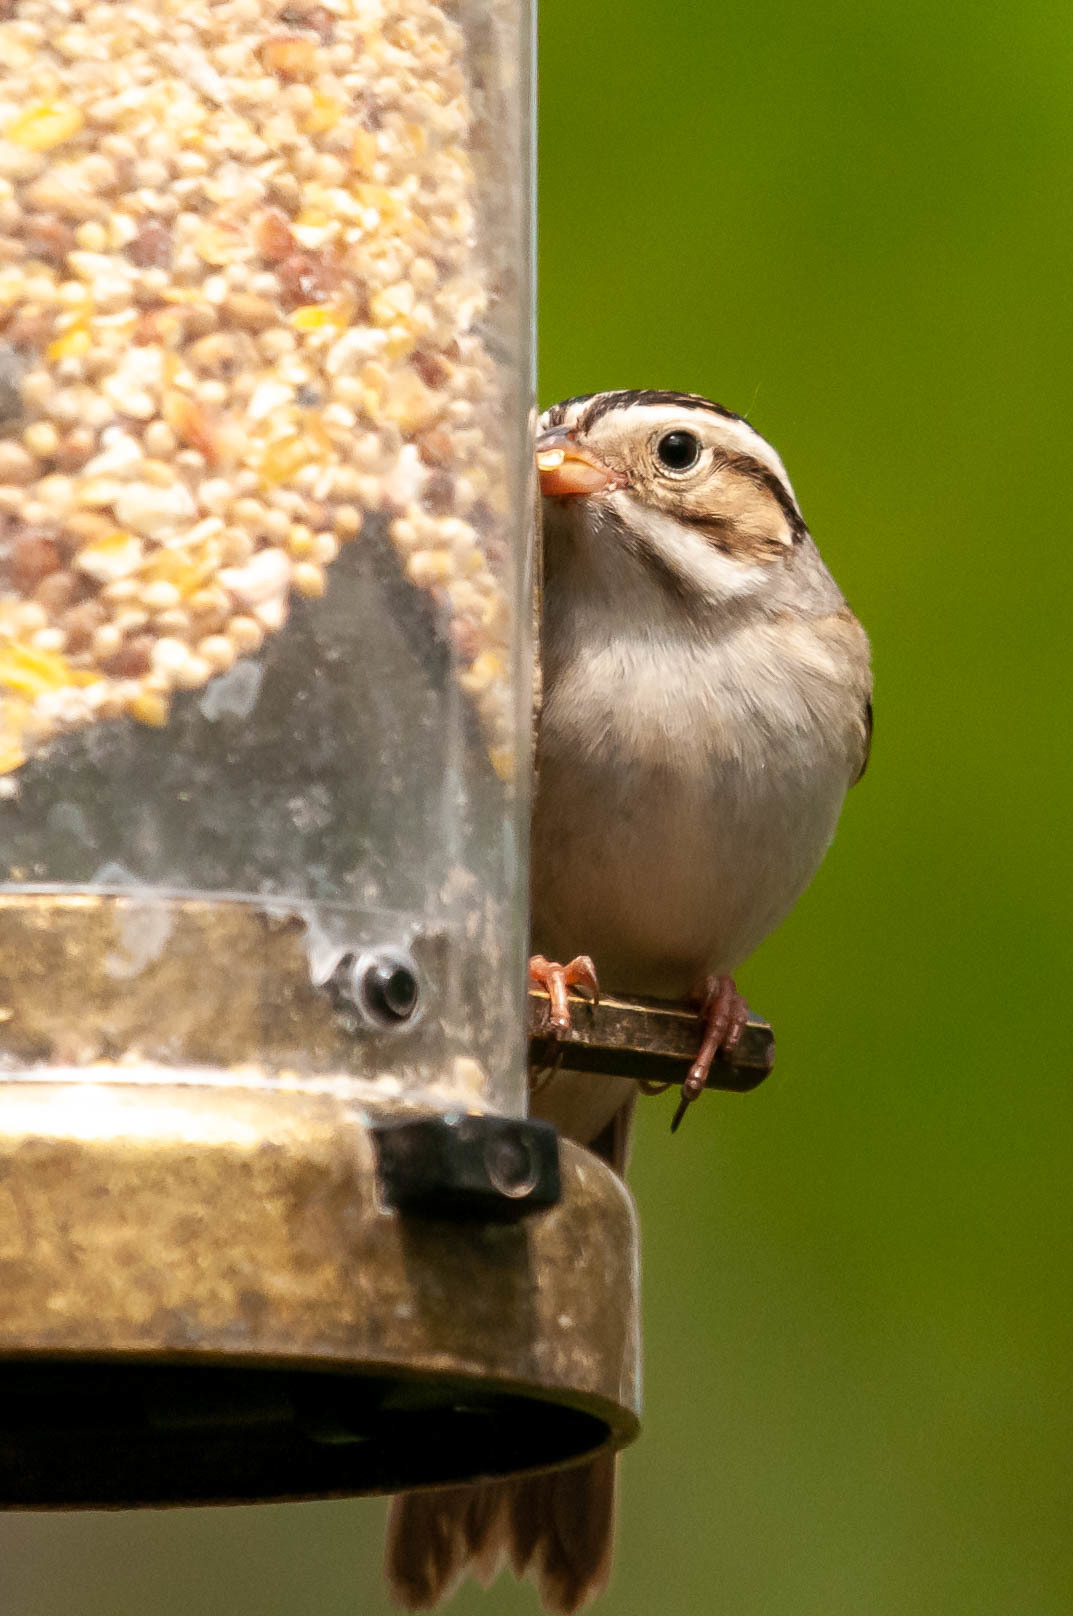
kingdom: Animalia
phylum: Chordata
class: Aves
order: Passeriformes
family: Passerellidae
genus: Spizella
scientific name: Spizella pallida
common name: Clay-colored sparrow
